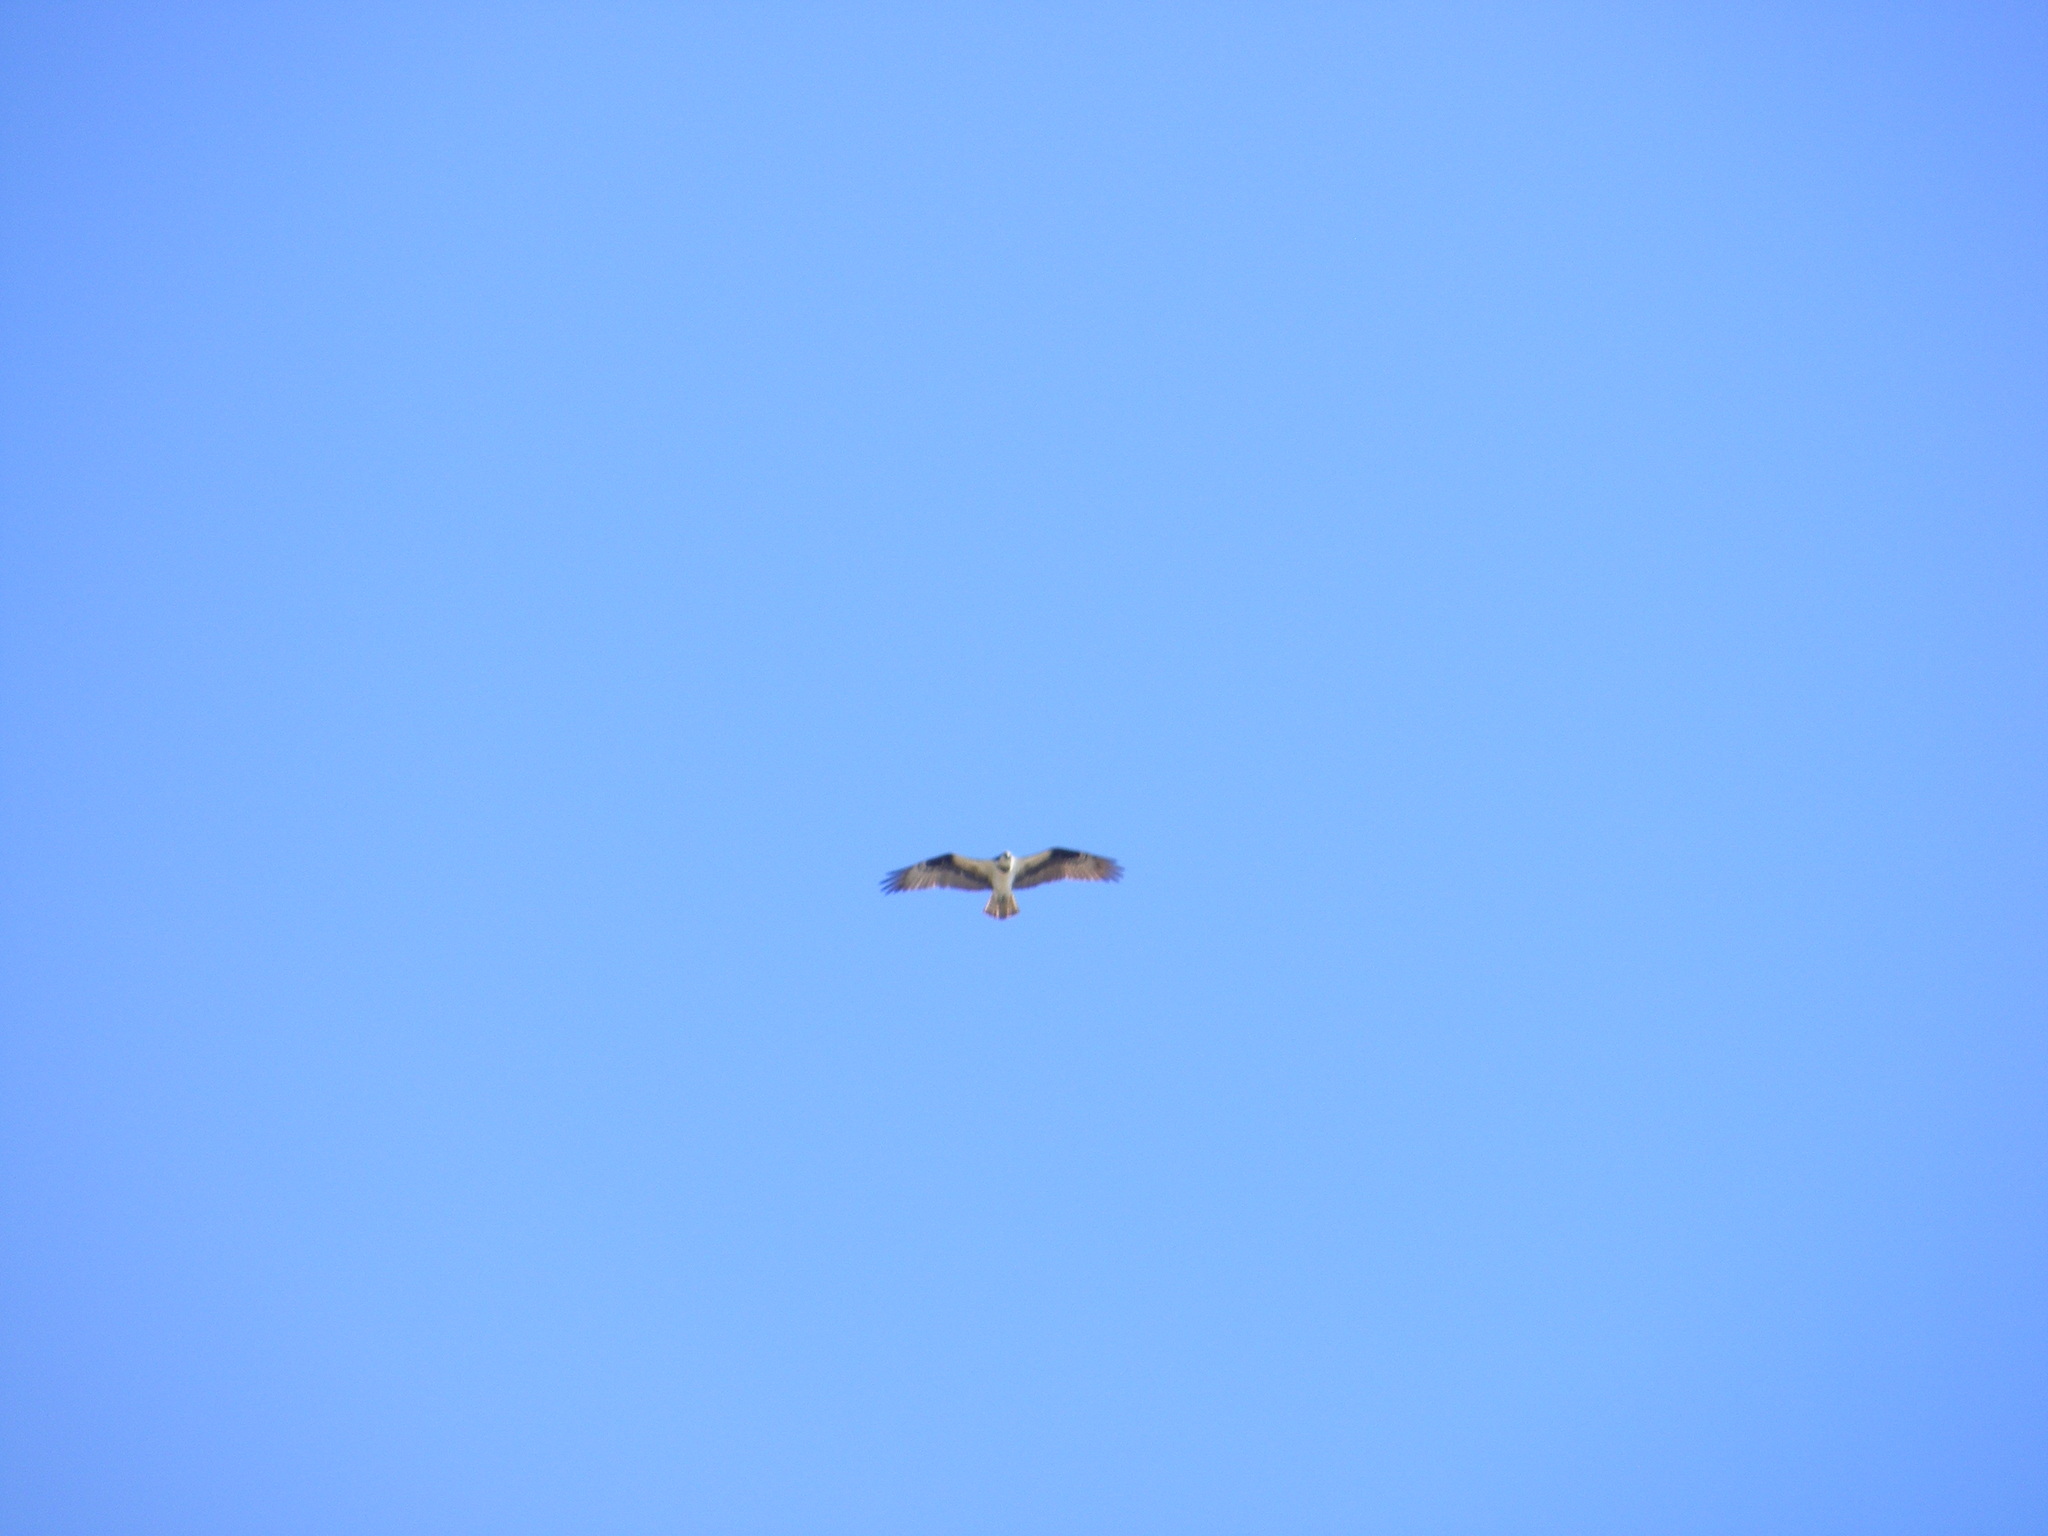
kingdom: Animalia
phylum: Chordata
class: Aves
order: Accipitriformes
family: Pandionidae
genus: Pandion
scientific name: Pandion haliaetus
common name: Osprey
